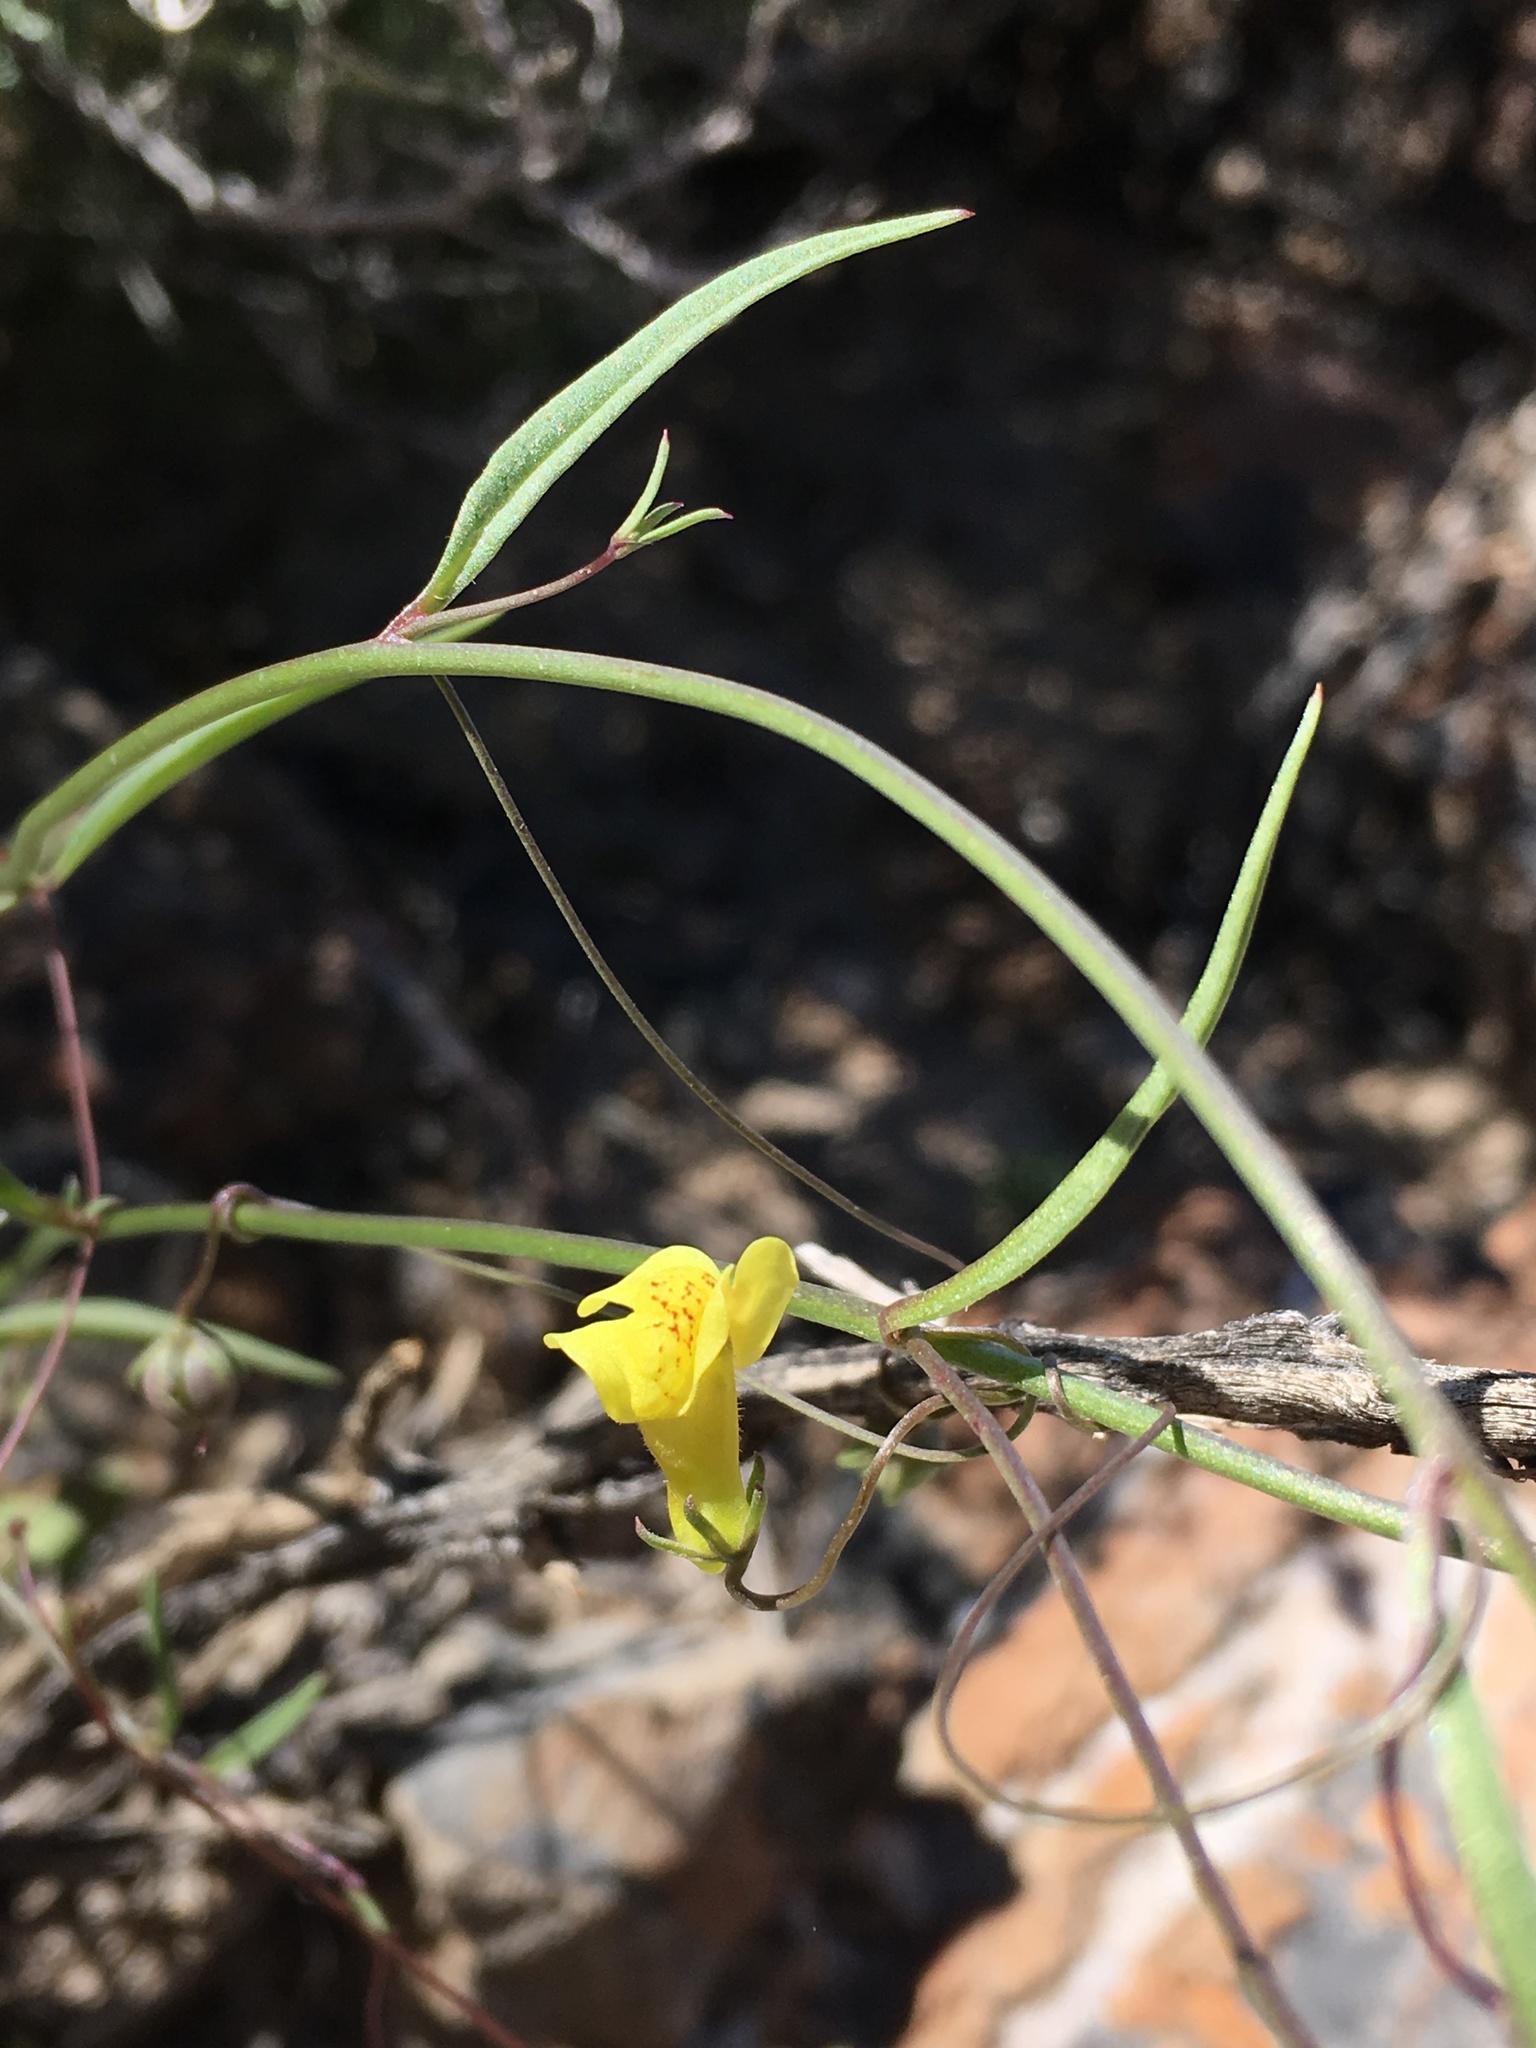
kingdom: Plantae
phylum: Tracheophyta
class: Magnoliopsida
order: Lamiales
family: Plantaginaceae
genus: Neogaerrhinum
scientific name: Neogaerrhinum filipes
